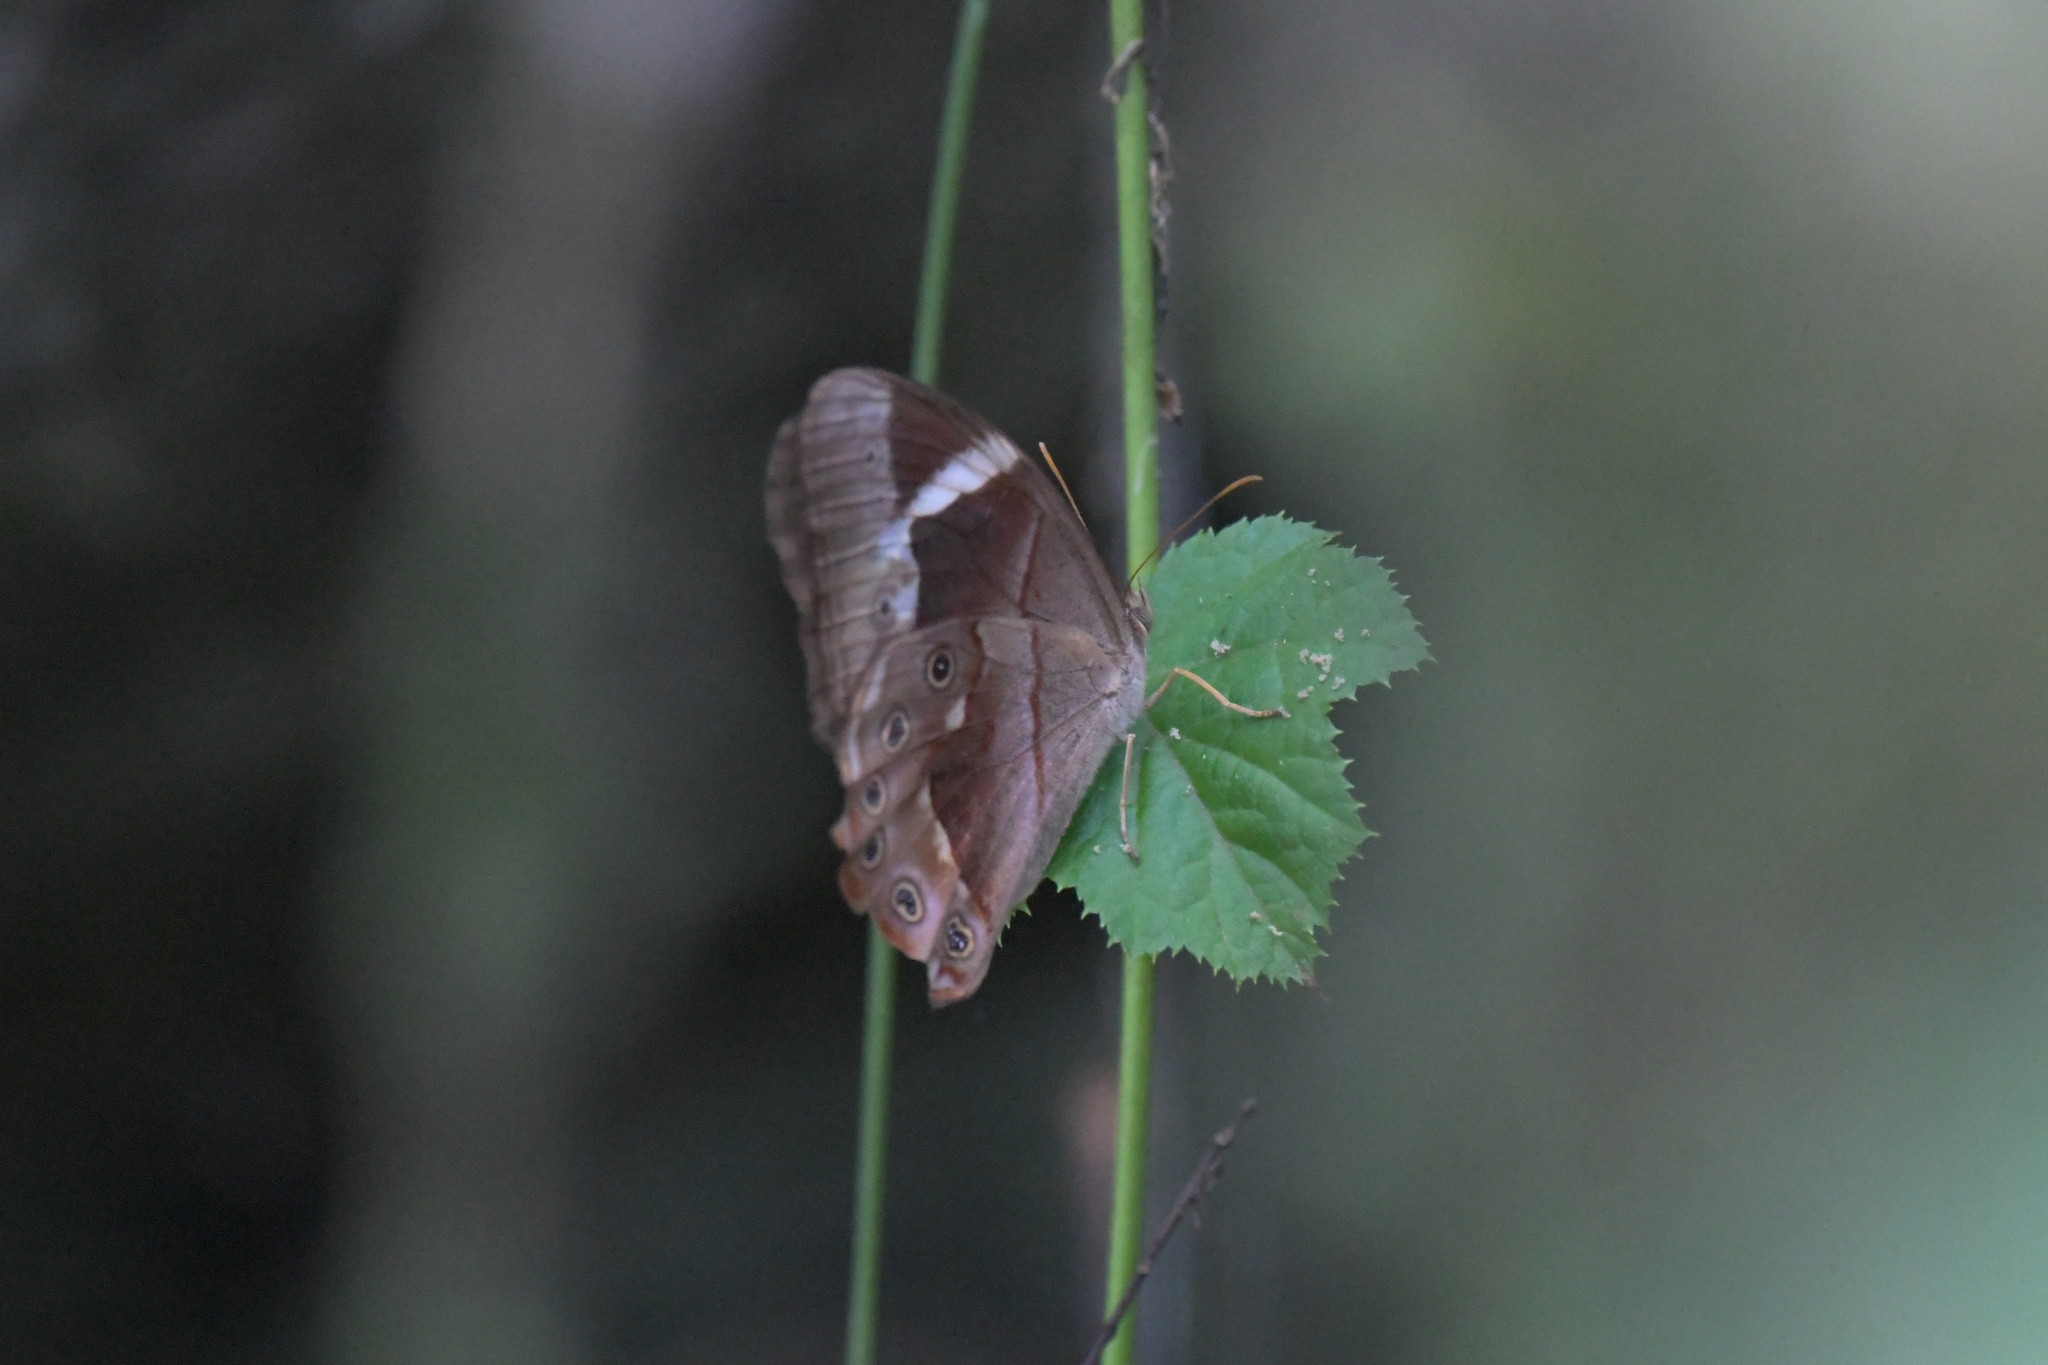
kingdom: Animalia
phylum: Arthropoda
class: Insecta
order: Lepidoptera
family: Nymphalidae
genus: Lethe
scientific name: Lethe chandica
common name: Angled red forester
